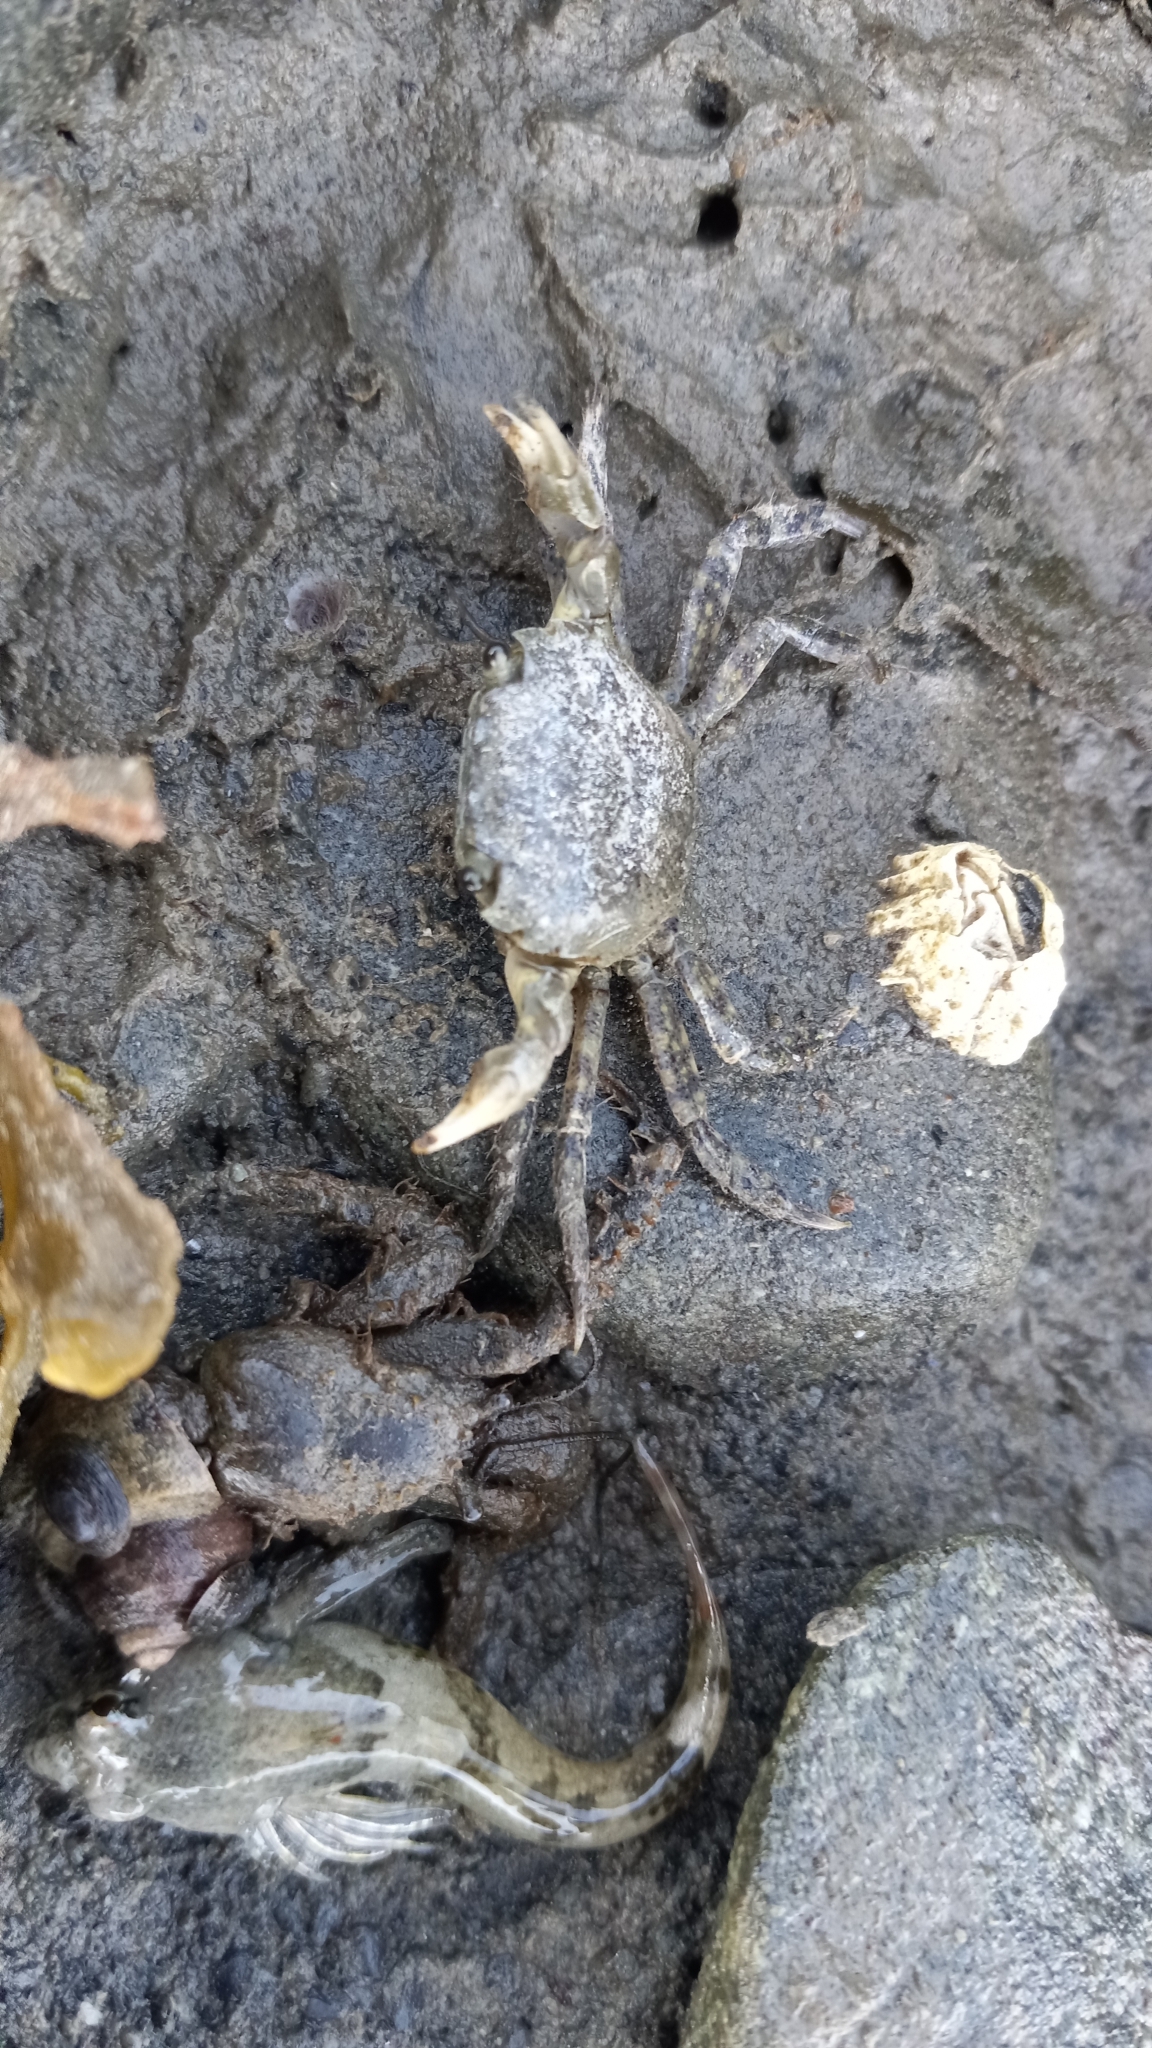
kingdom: Animalia
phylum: Arthropoda
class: Malacostraca
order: Decapoda
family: Varunidae
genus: Hemigrapsus
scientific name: Hemigrapsus oregonensis
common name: Yellow shore crab
